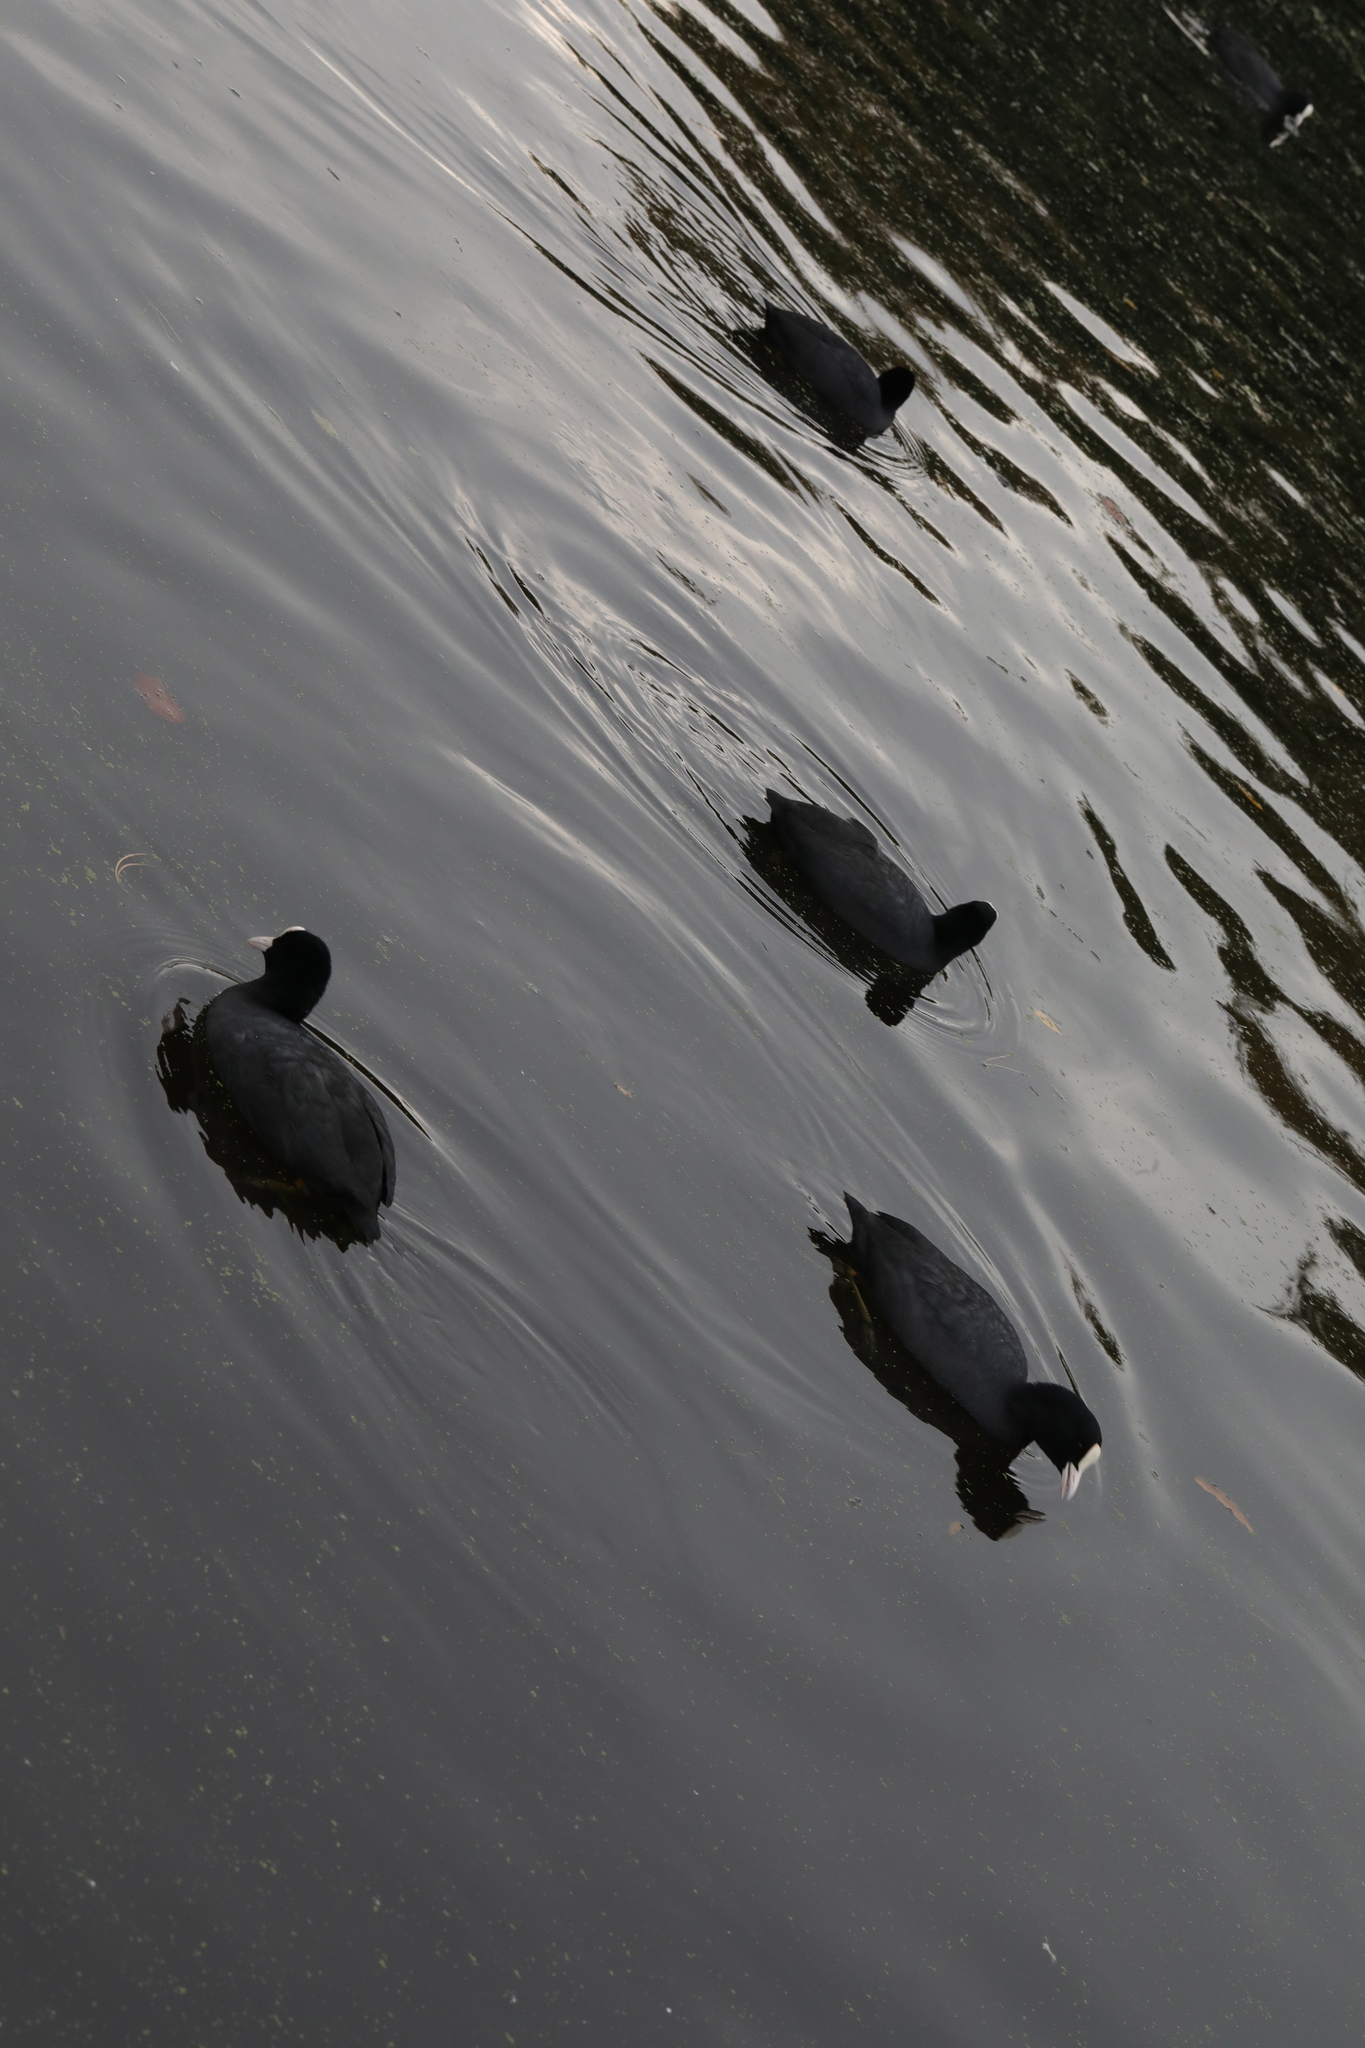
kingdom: Animalia
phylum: Chordata
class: Aves
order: Gruiformes
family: Rallidae
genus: Fulica
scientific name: Fulica atra
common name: Eurasian coot
